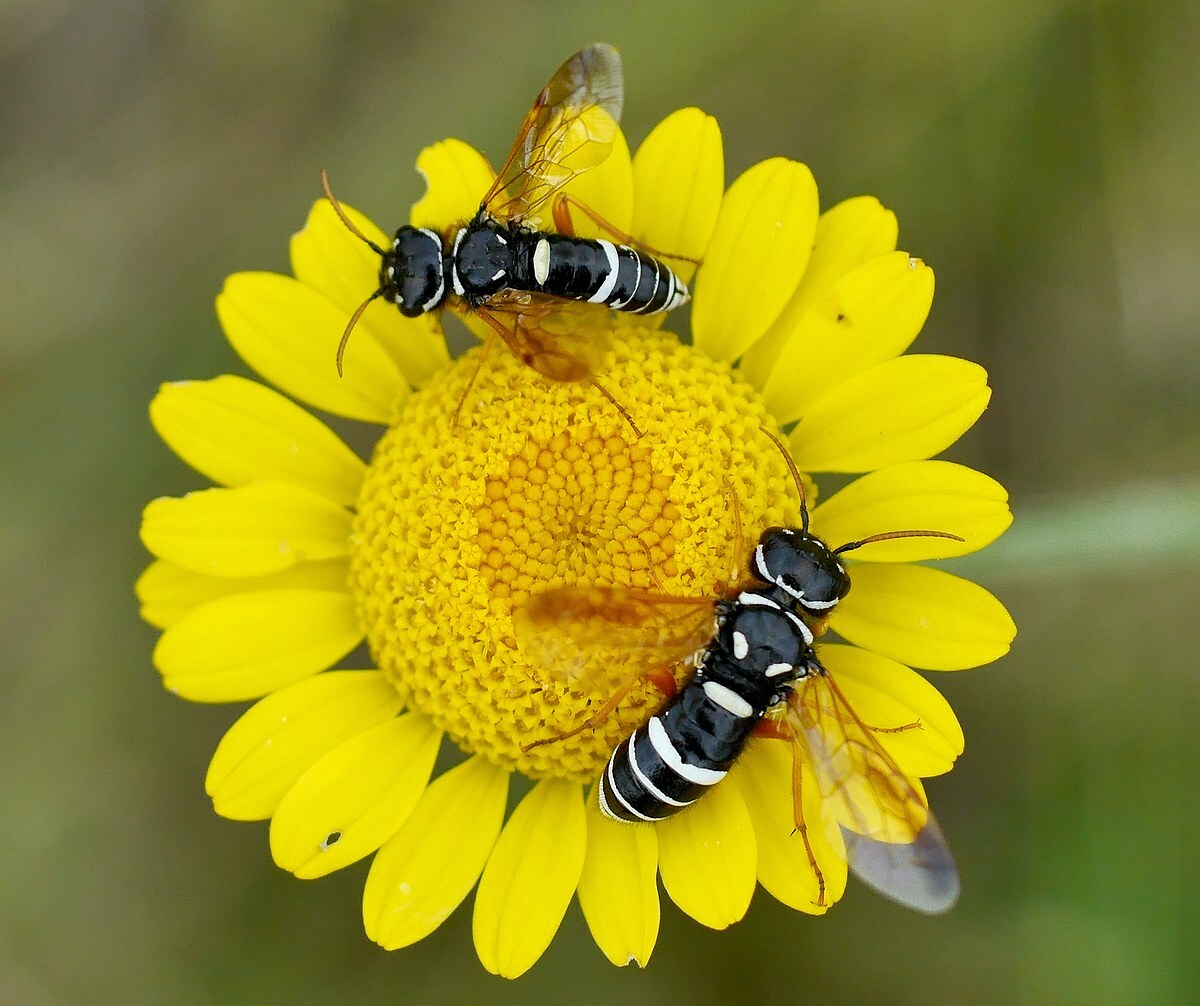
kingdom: Animalia
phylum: Arthropoda
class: Insecta
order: Hymenoptera
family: Megalodontesidae
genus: Megalodontes
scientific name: Megalodontes plagiocephalus
